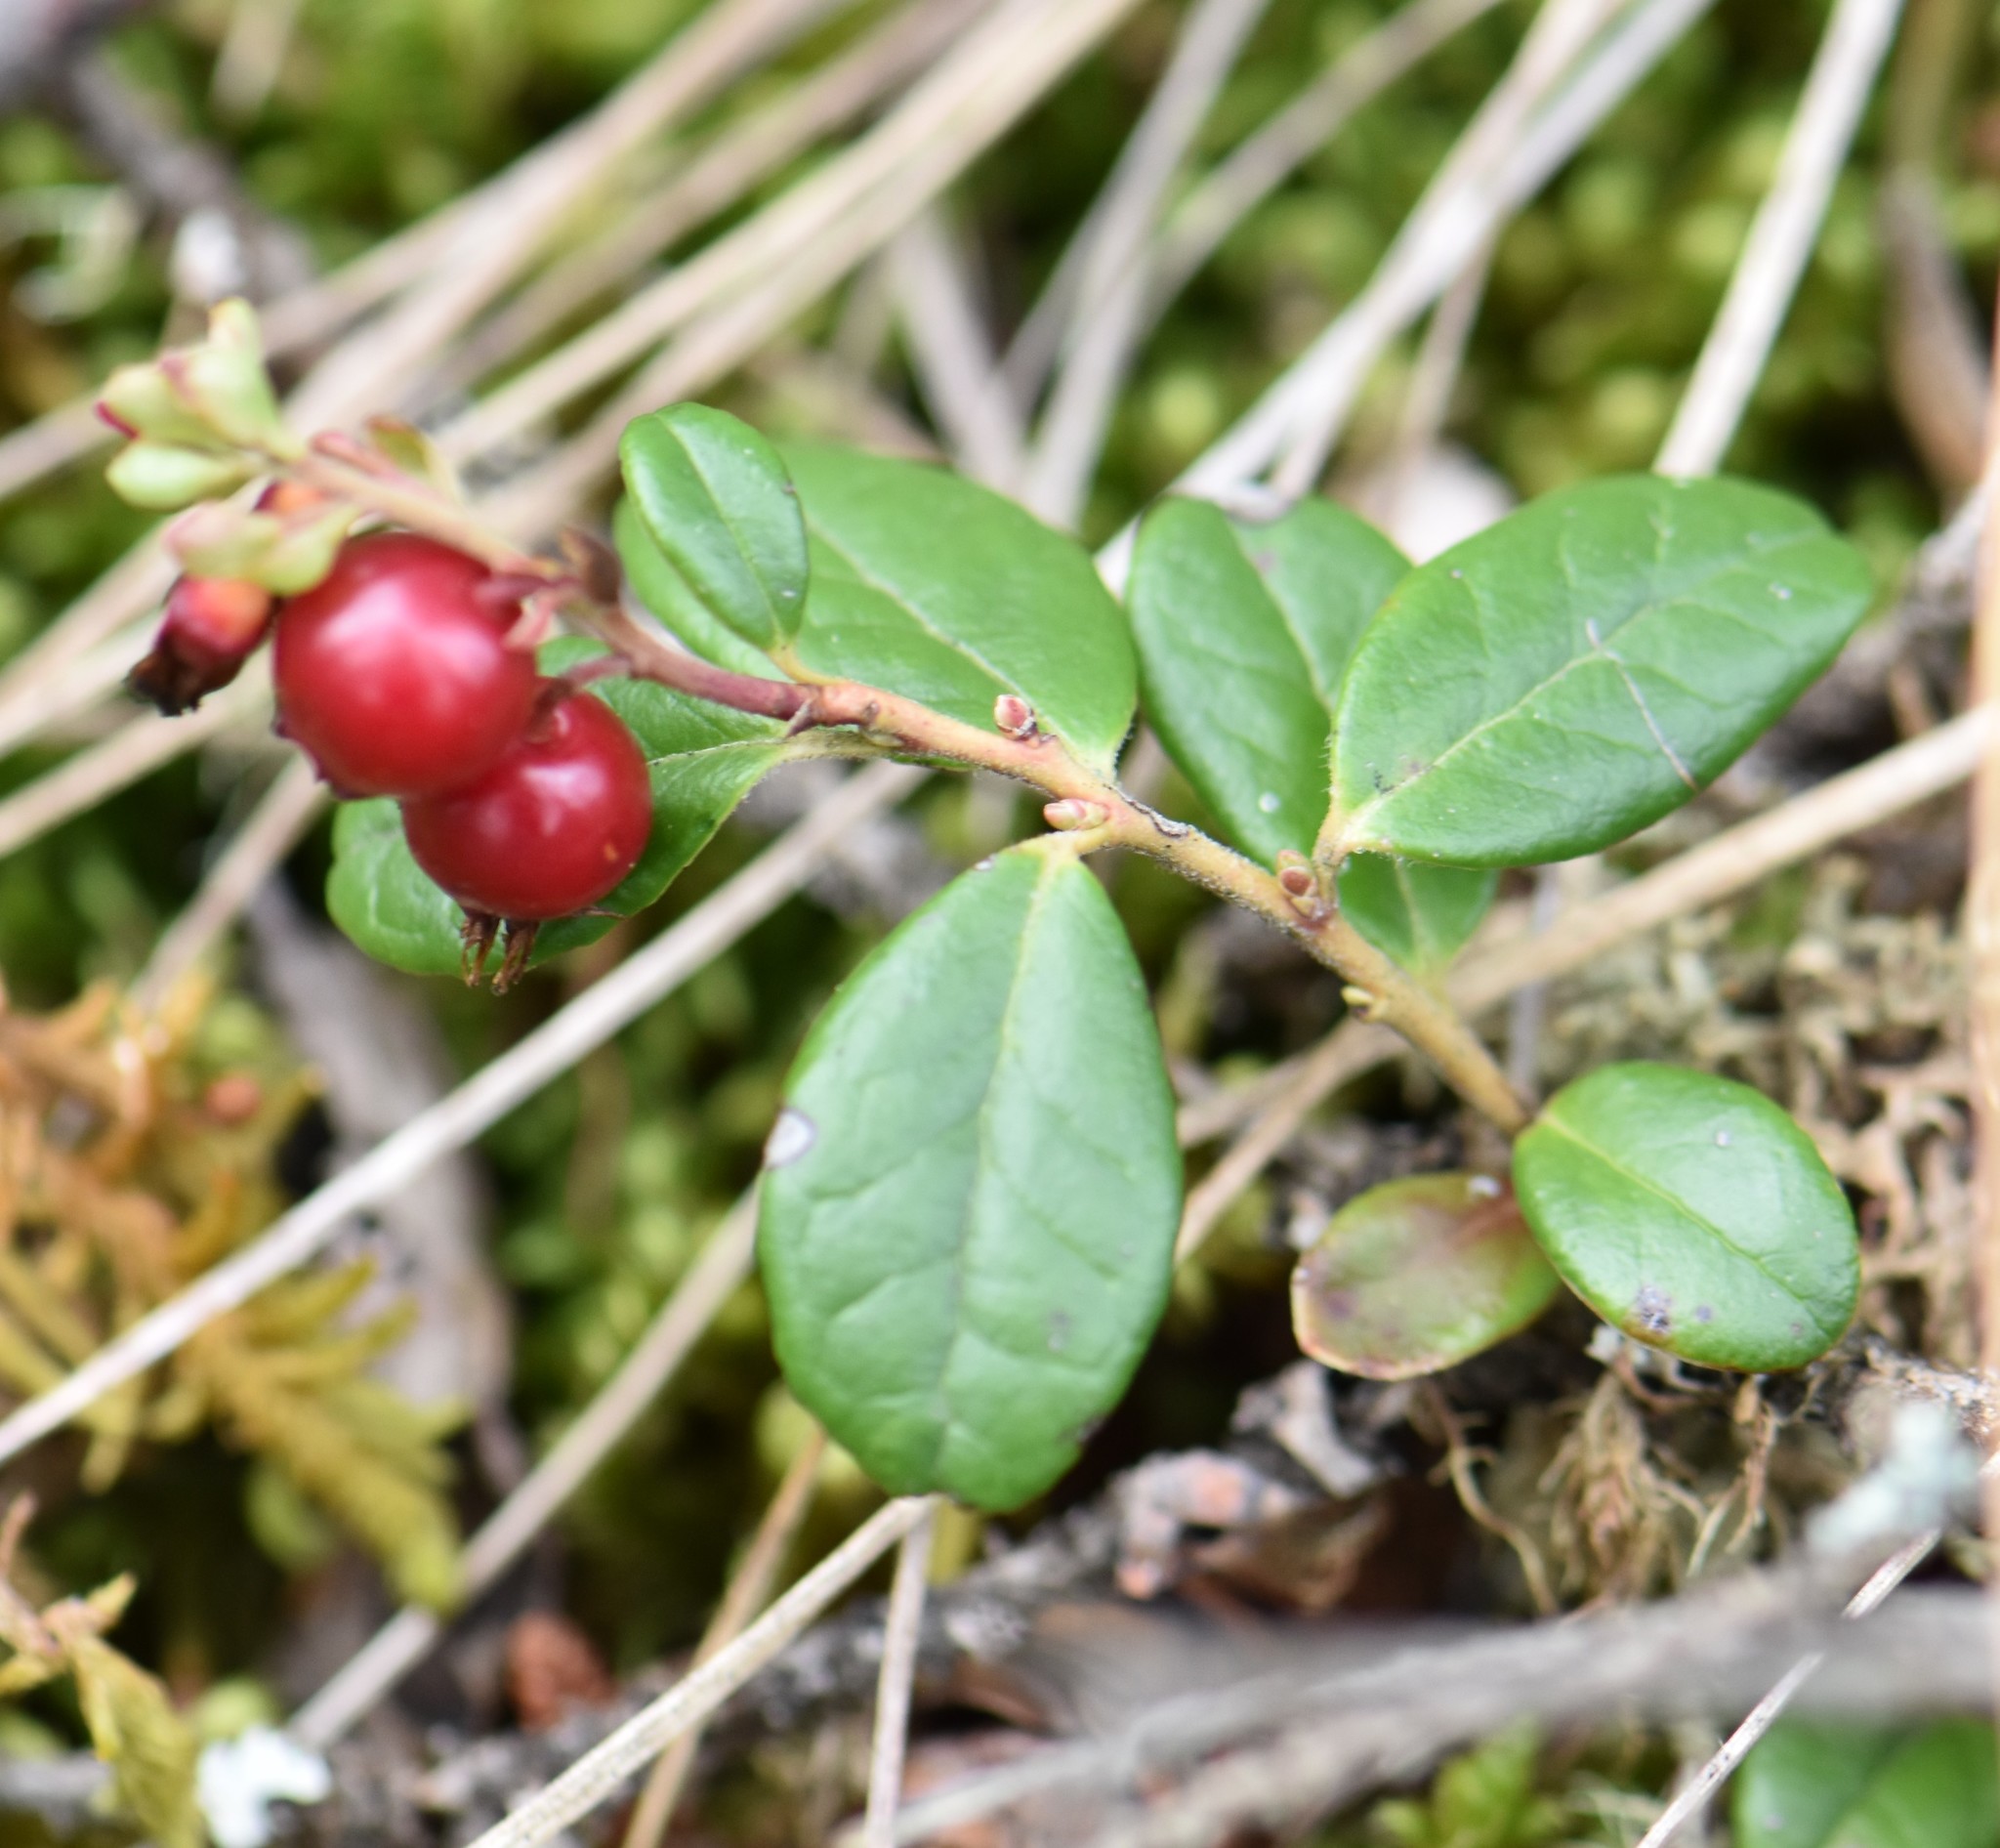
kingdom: Plantae
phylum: Tracheophyta
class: Magnoliopsida
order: Ericales
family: Ericaceae
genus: Vaccinium
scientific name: Vaccinium vitis-idaea
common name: Cowberry
